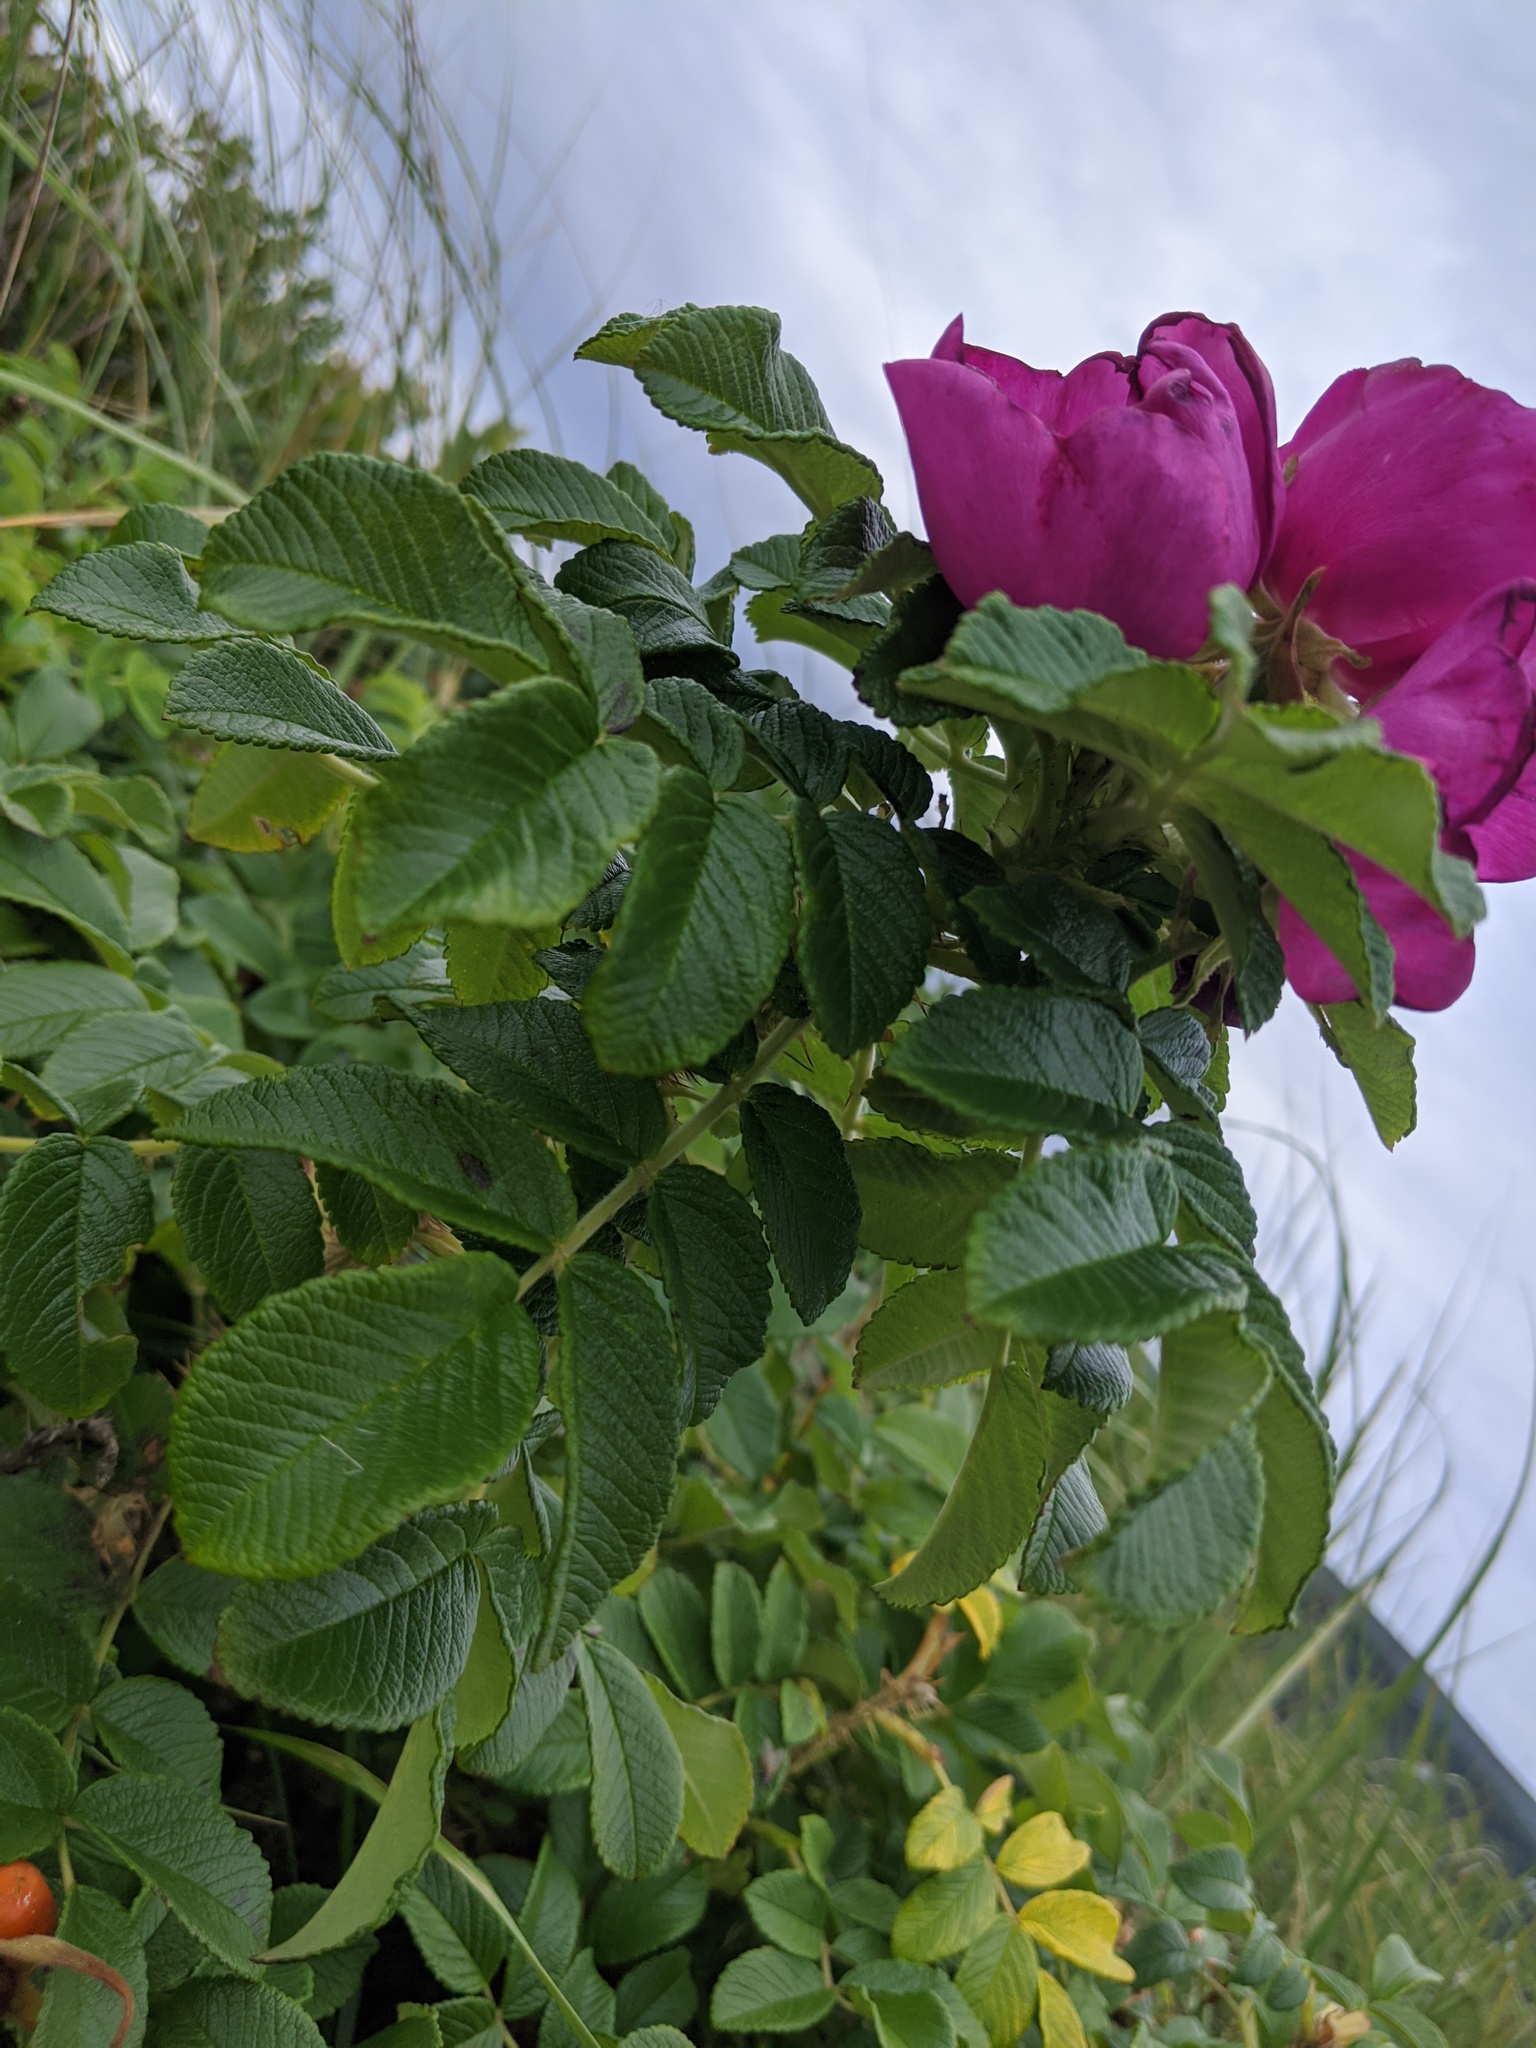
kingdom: Plantae
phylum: Tracheophyta
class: Magnoliopsida
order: Rosales
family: Rosaceae
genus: Rosa
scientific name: Rosa rugosa
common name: Japanese rose
